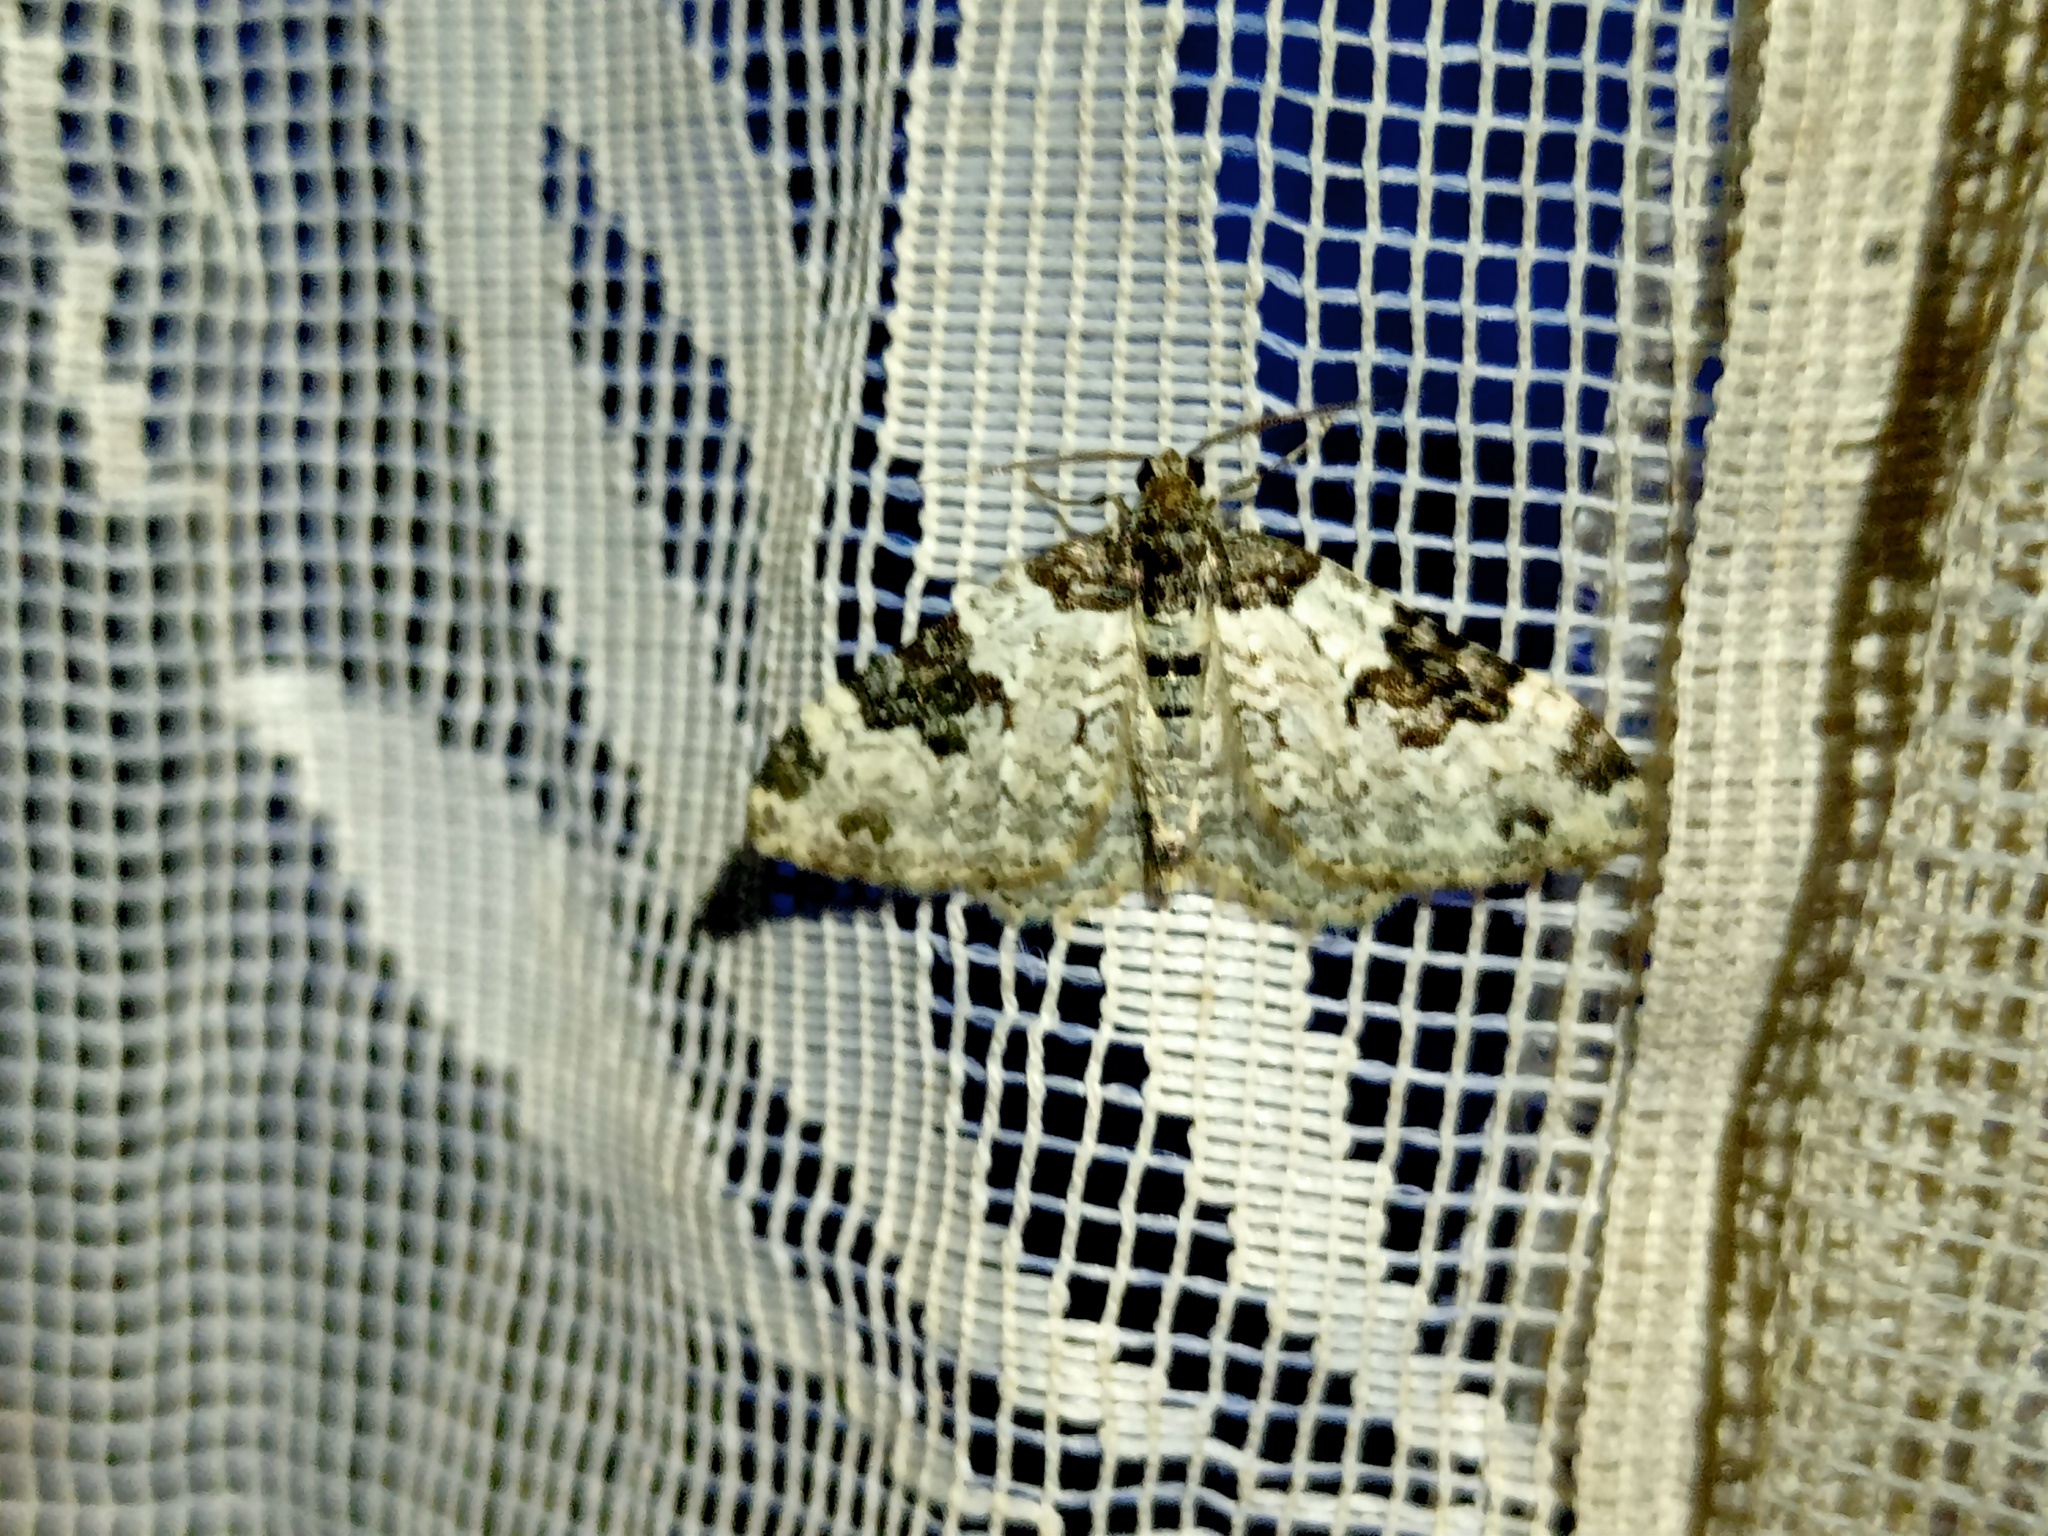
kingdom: Animalia
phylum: Arthropoda
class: Insecta
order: Lepidoptera
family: Geometridae
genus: Xanthorhoe
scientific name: Xanthorhoe fluctuata
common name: Garden carpet
